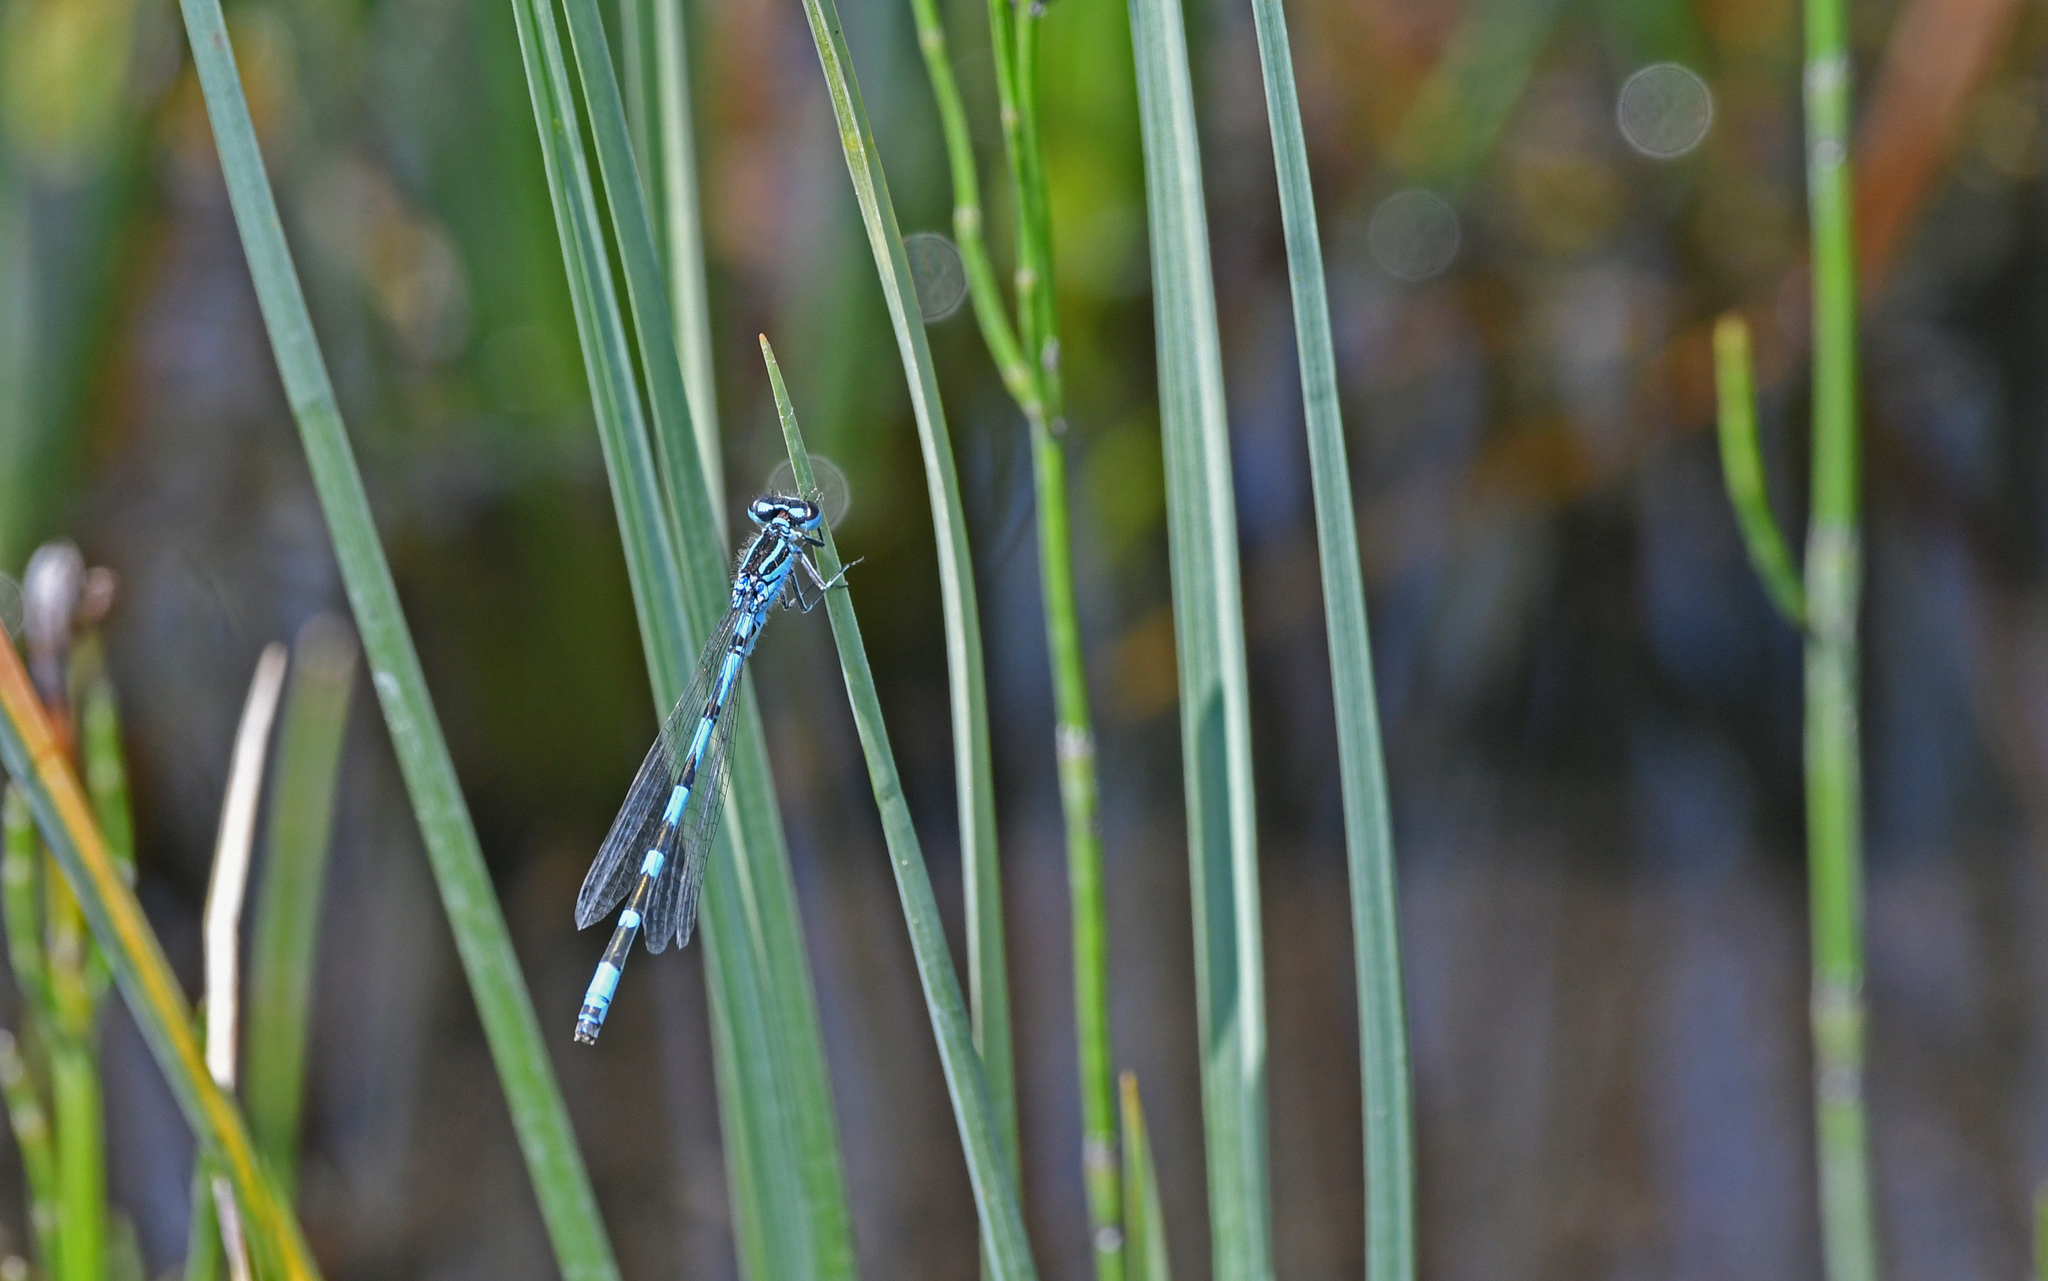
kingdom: Animalia
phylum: Arthropoda
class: Insecta
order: Odonata
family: Coenagrionidae
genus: Coenagrion
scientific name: Coenagrion ornatum
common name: Ornate bluet
